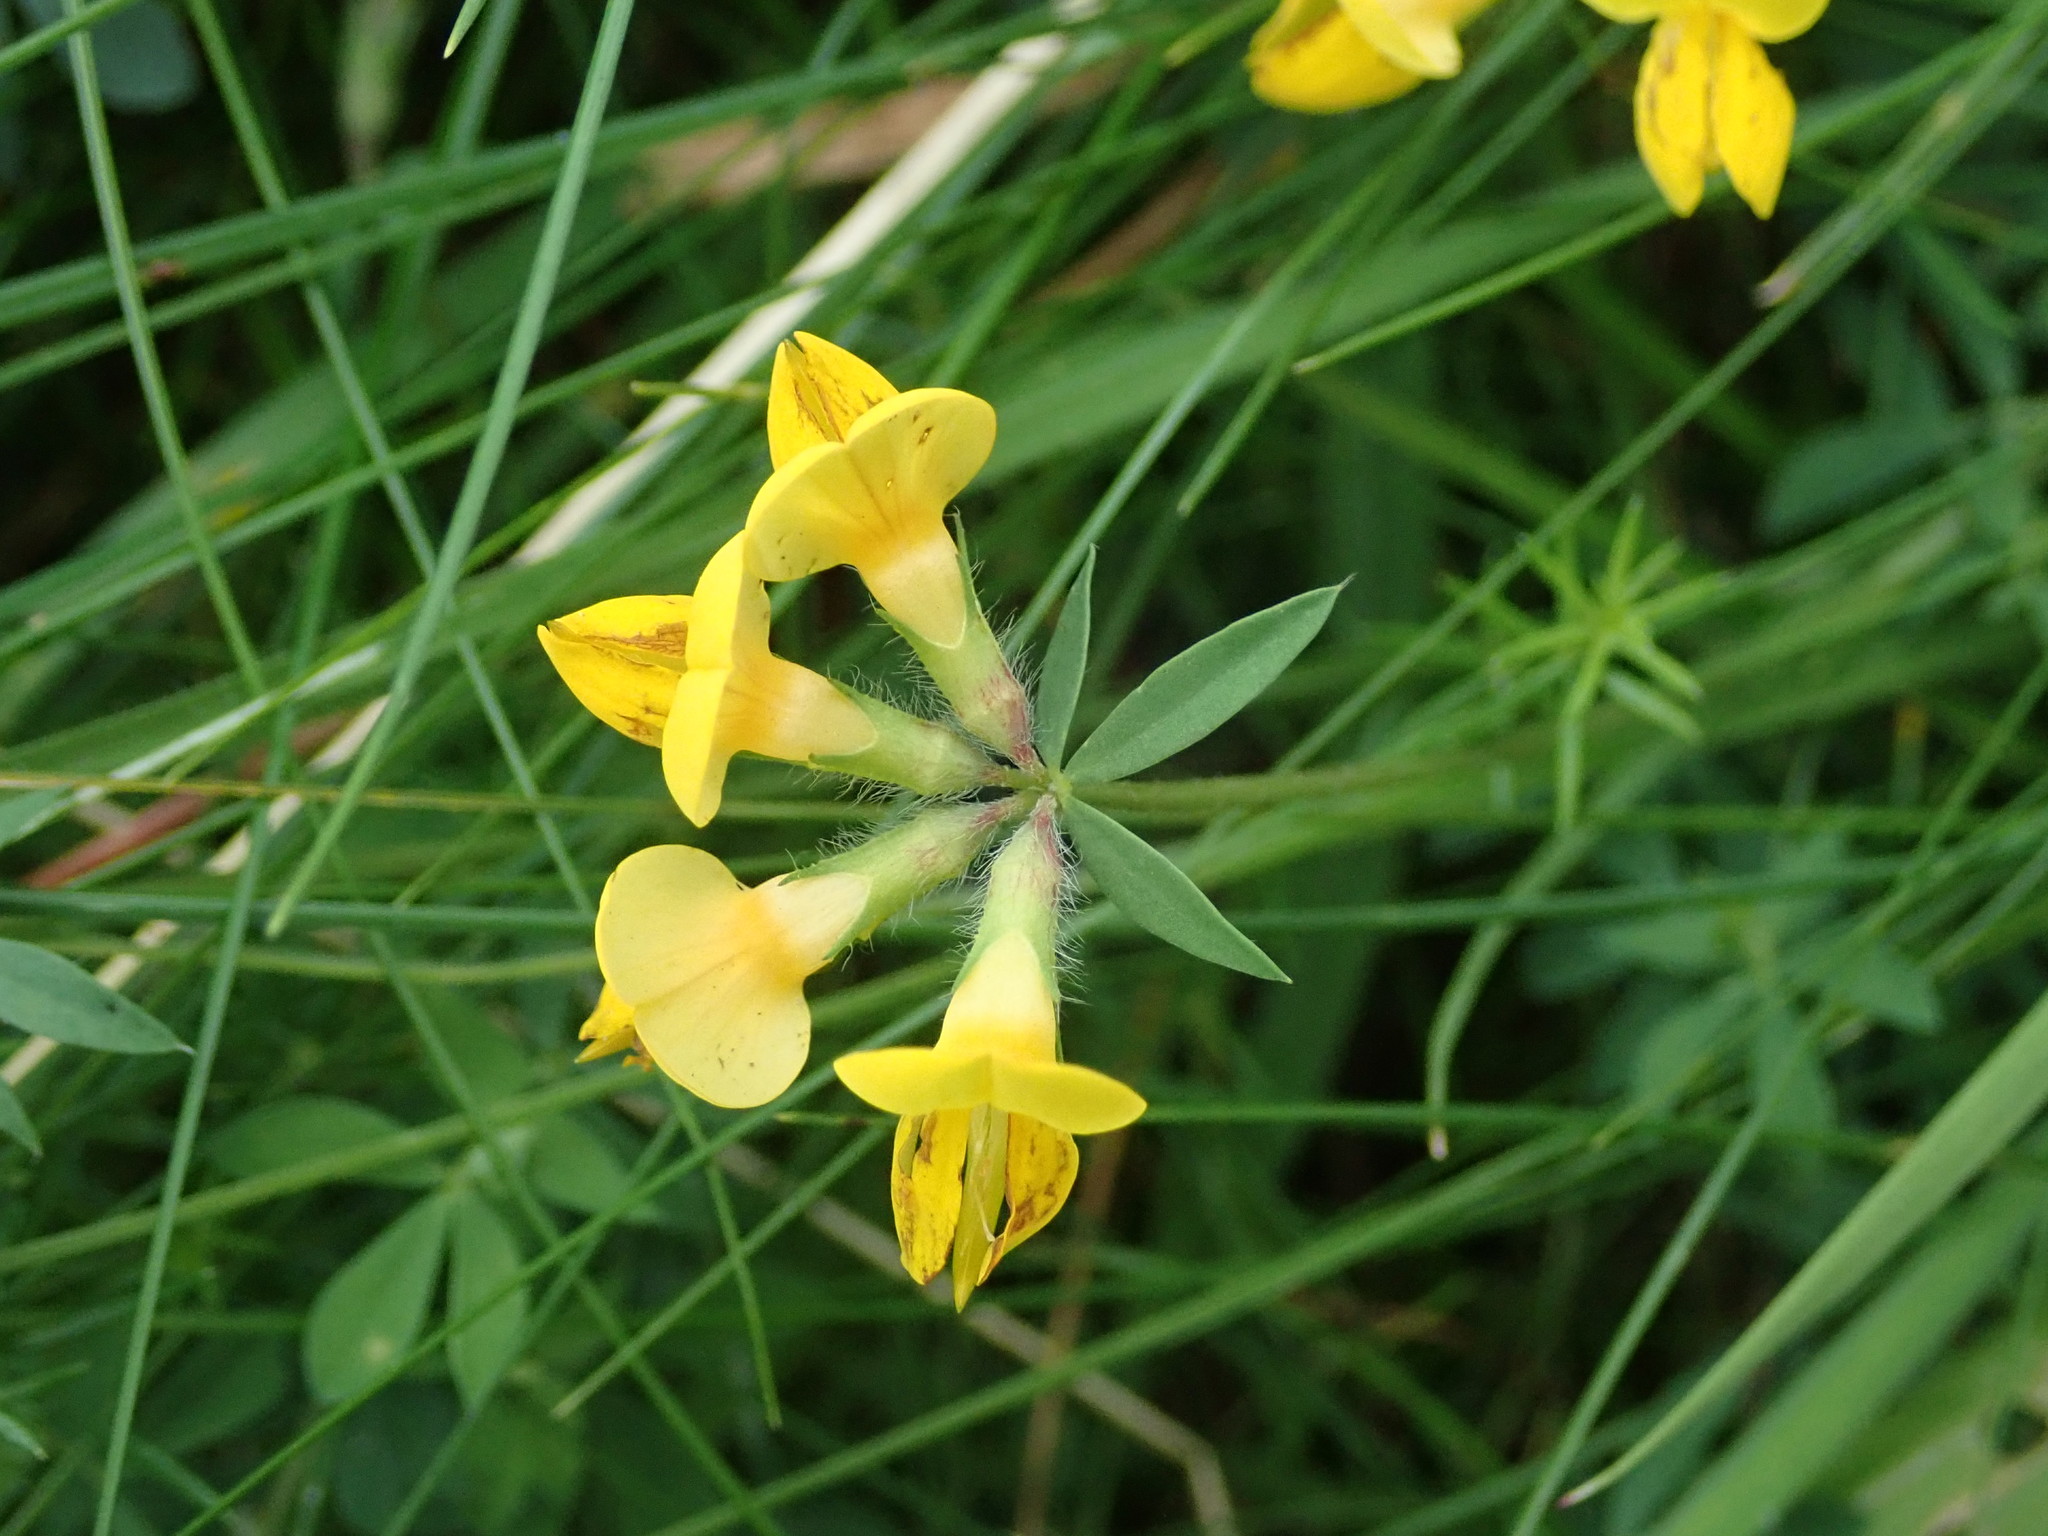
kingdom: Plantae
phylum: Tracheophyta
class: Magnoliopsida
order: Fabales
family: Fabaceae
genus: Lotus
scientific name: Lotus corniculatus
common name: Common bird's-foot-trefoil
